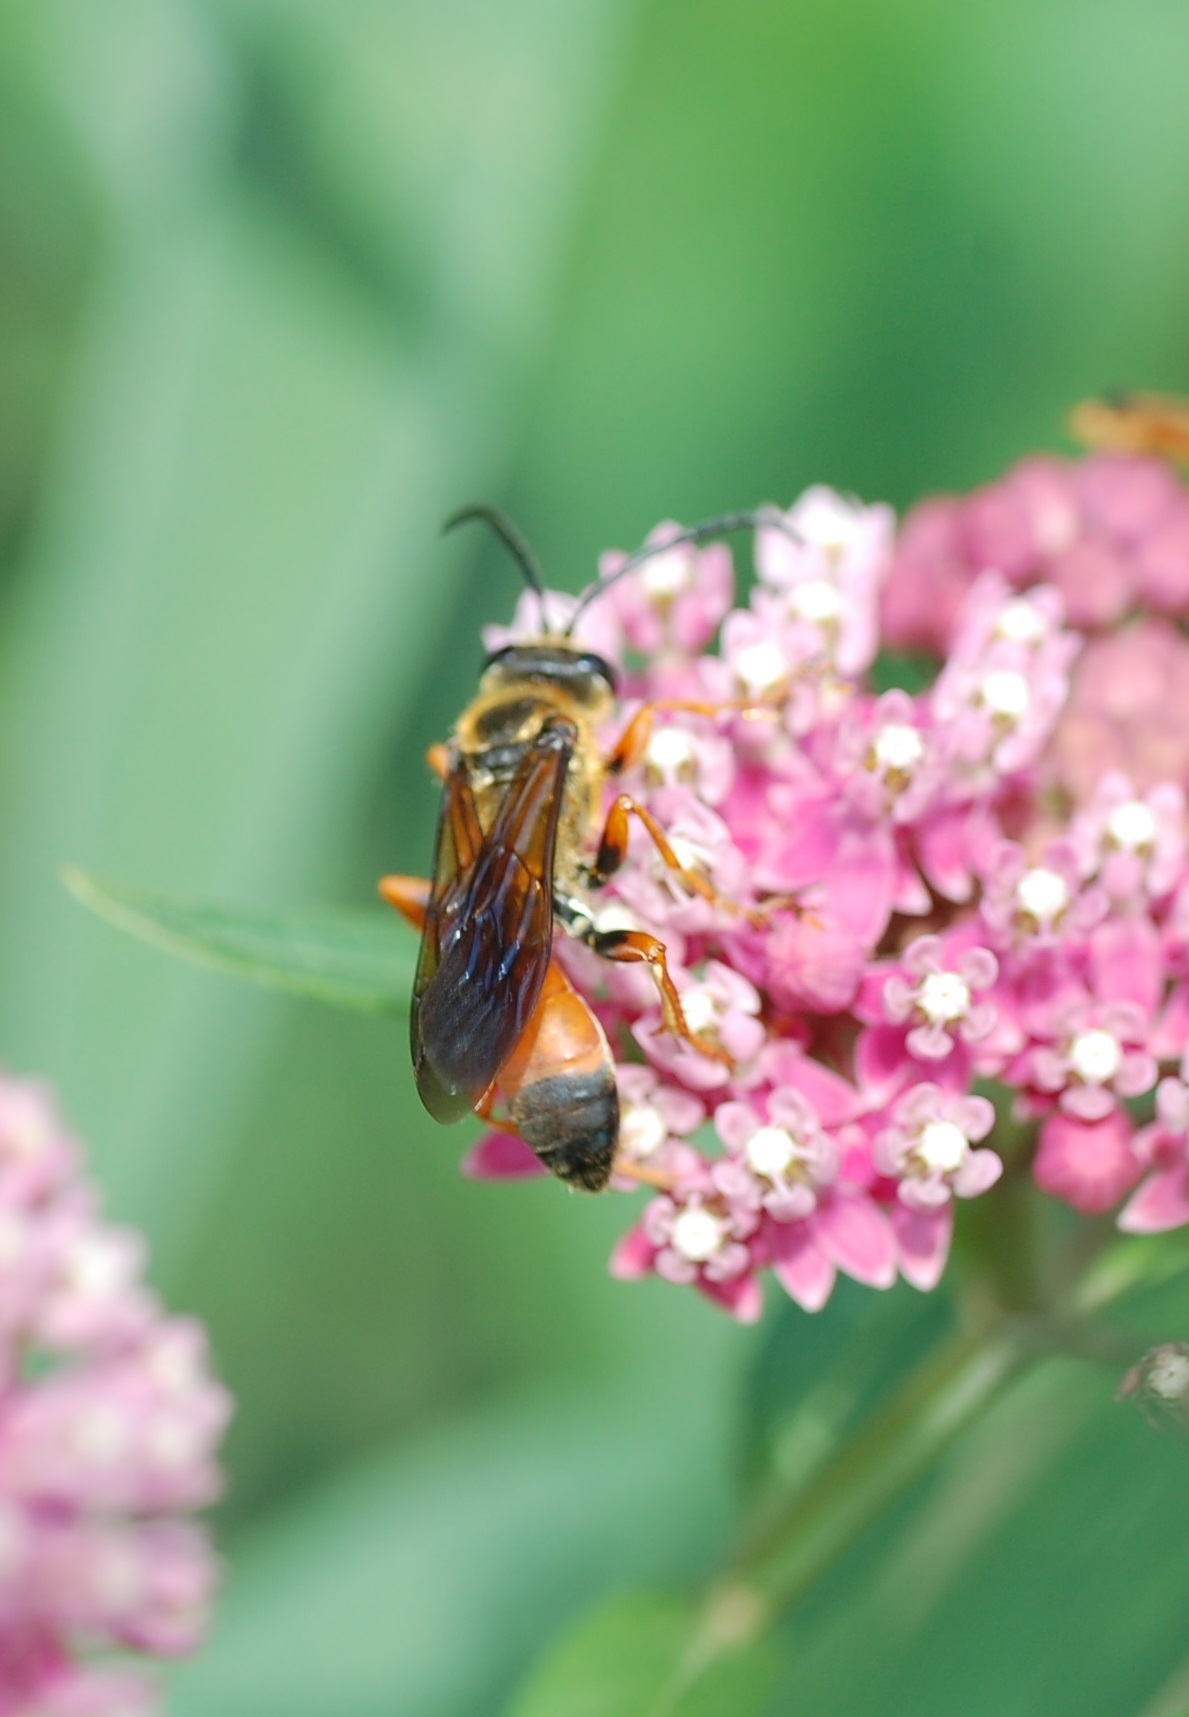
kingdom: Animalia
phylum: Arthropoda
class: Insecta
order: Hymenoptera
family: Sphecidae
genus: Sphex
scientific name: Sphex ichneumoneus
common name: Great golden digger wasp
